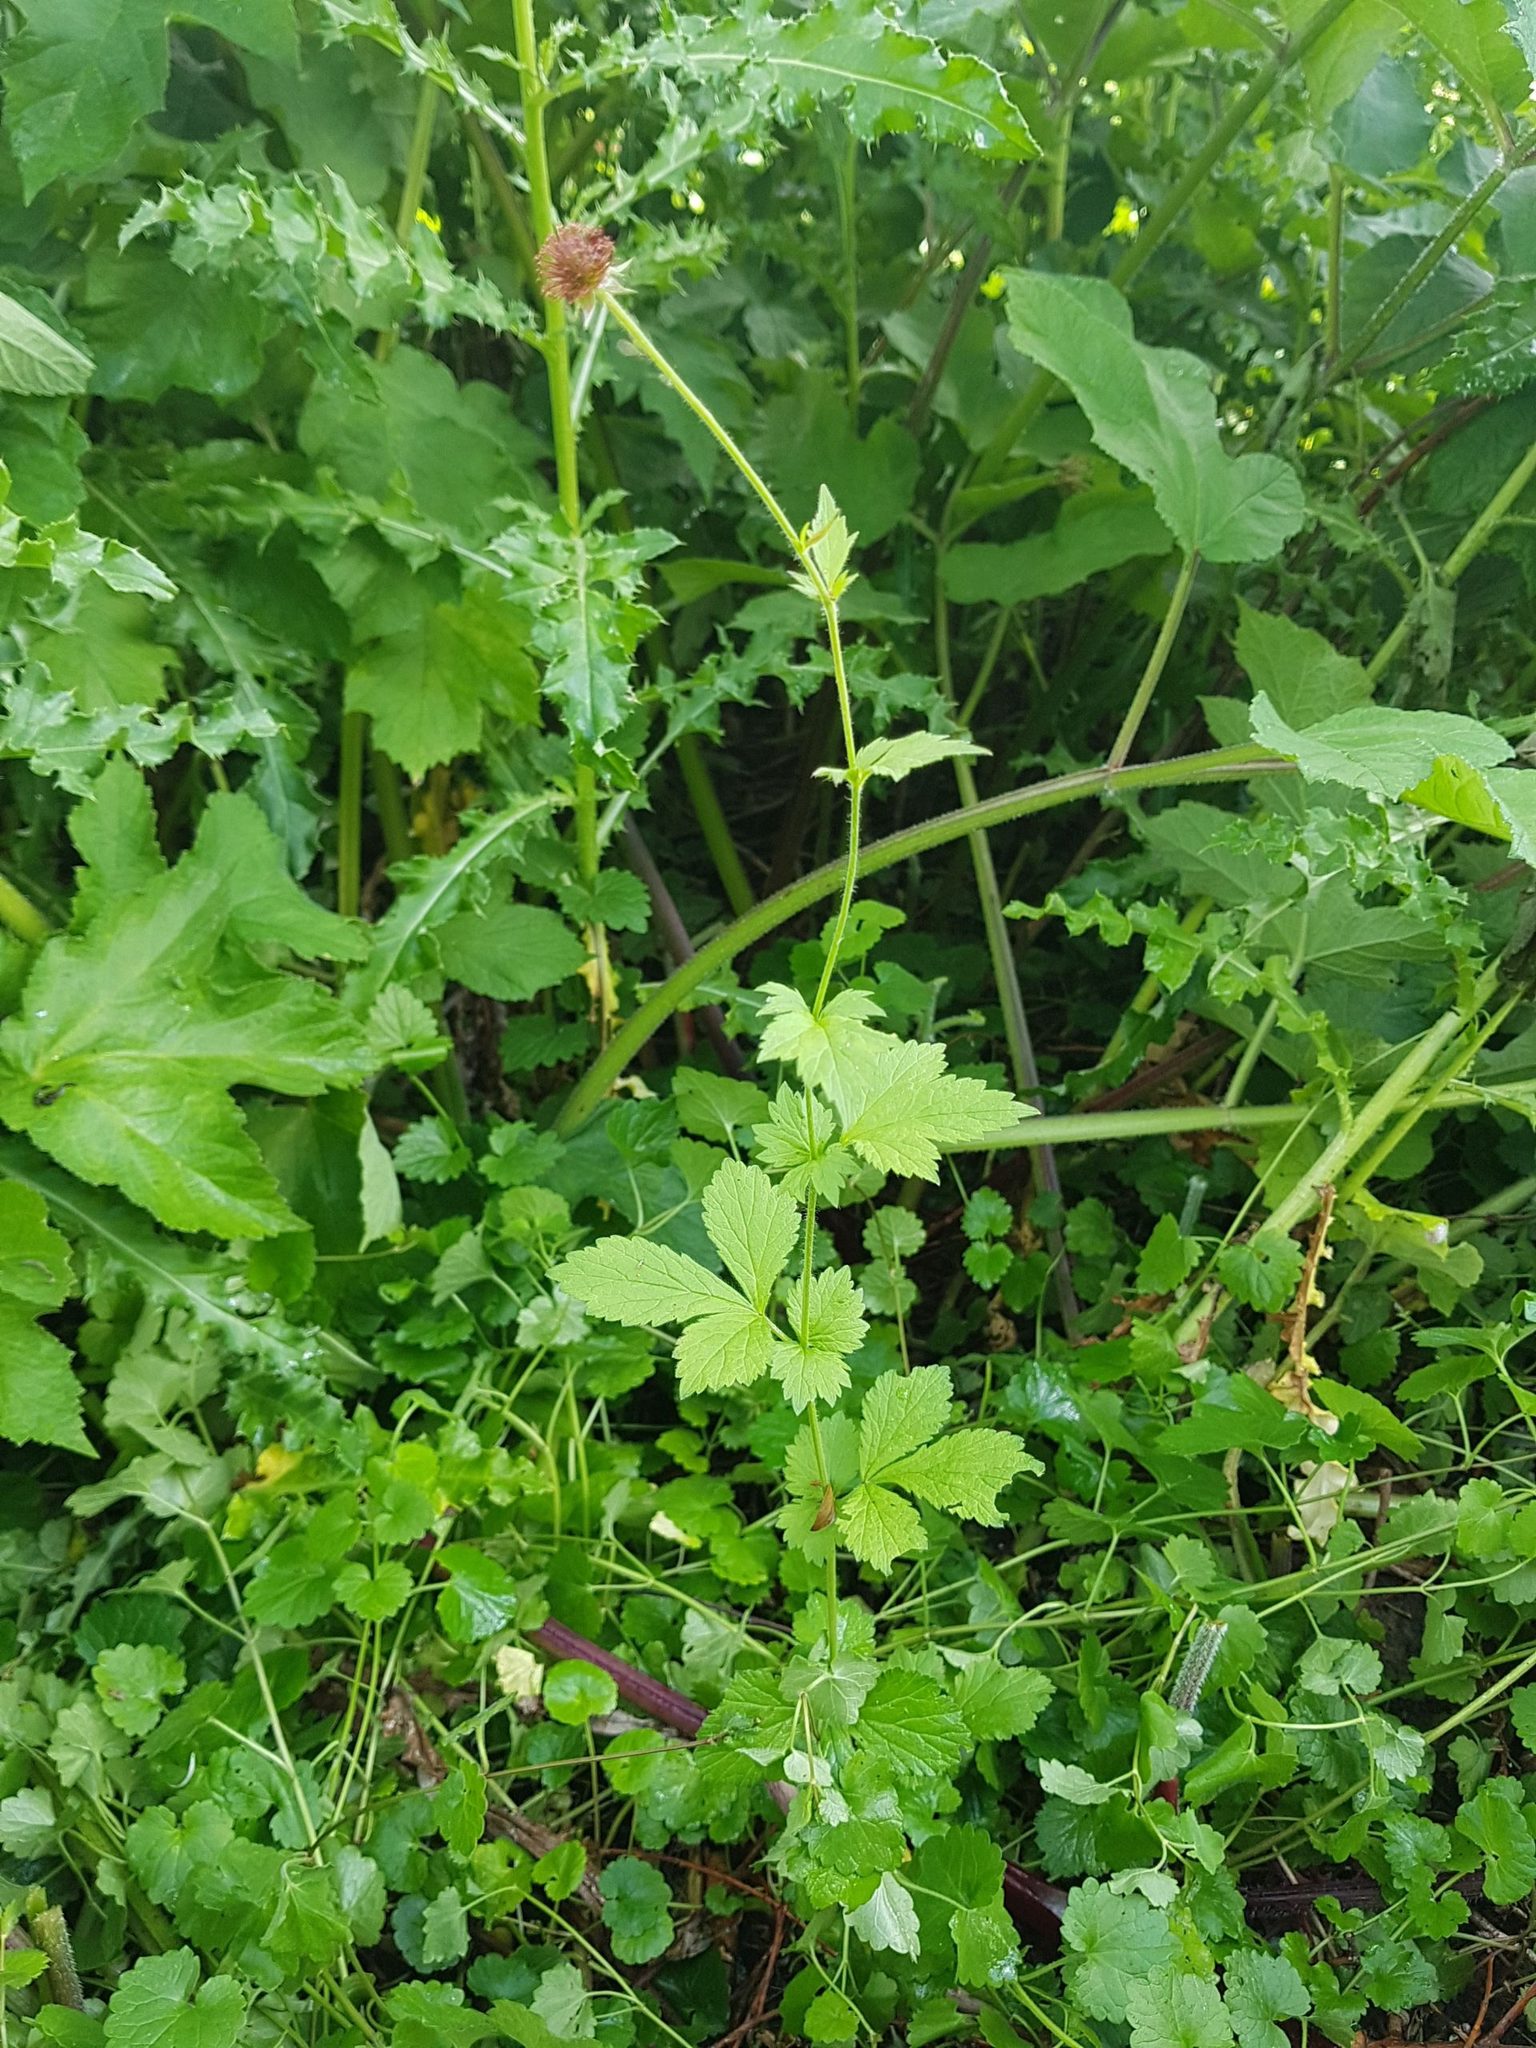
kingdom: Plantae
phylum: Tracheophyta
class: Magnoliopsida
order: Rosales
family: Rosaceae
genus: Geum
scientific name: Geum urbanum
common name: Wood avens
